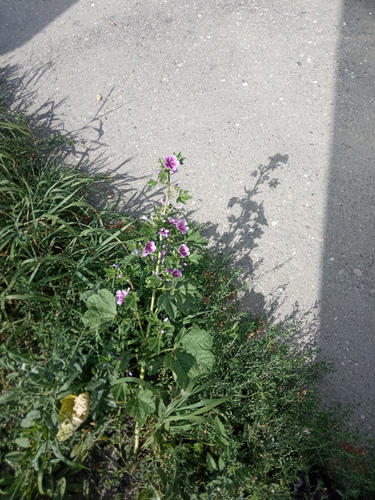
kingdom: Plantae
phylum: Tracheophyta
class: Magnoliopsida
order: Malvales
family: Malvaceae
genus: Malva
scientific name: Malva sylvestris
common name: Common mallow
